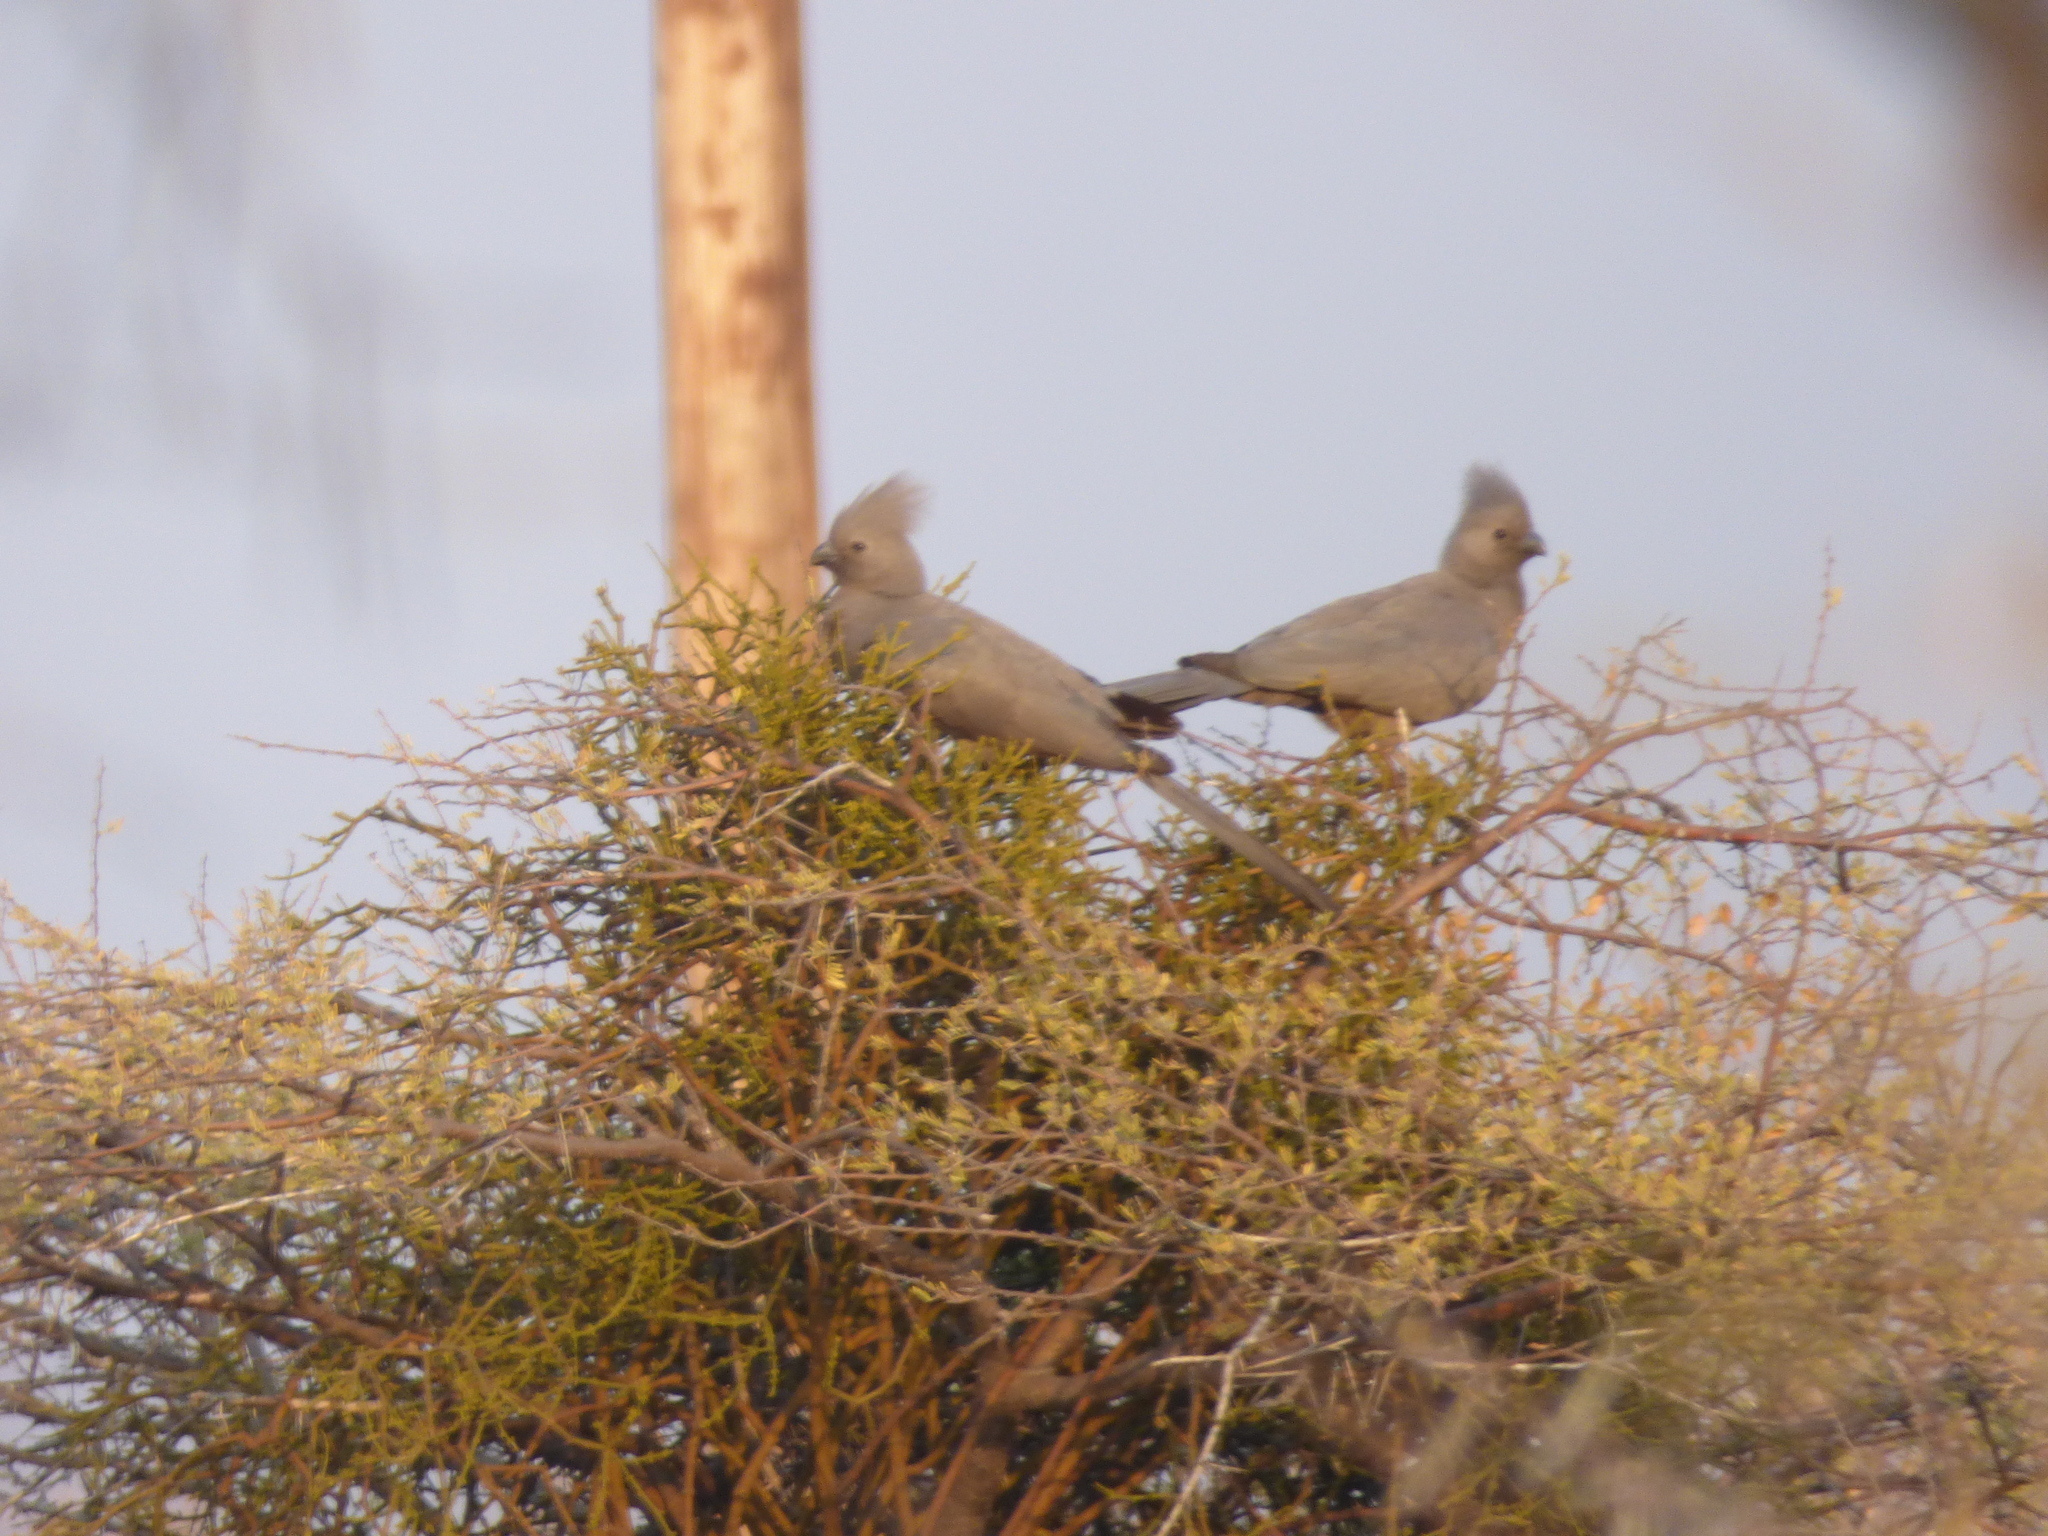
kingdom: Animalia
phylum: Chordata
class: Aves
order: Musophagiformes
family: Musophagidae
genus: Corythaixoides
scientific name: Corythaixoides concolor
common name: Grey go-away-bird
